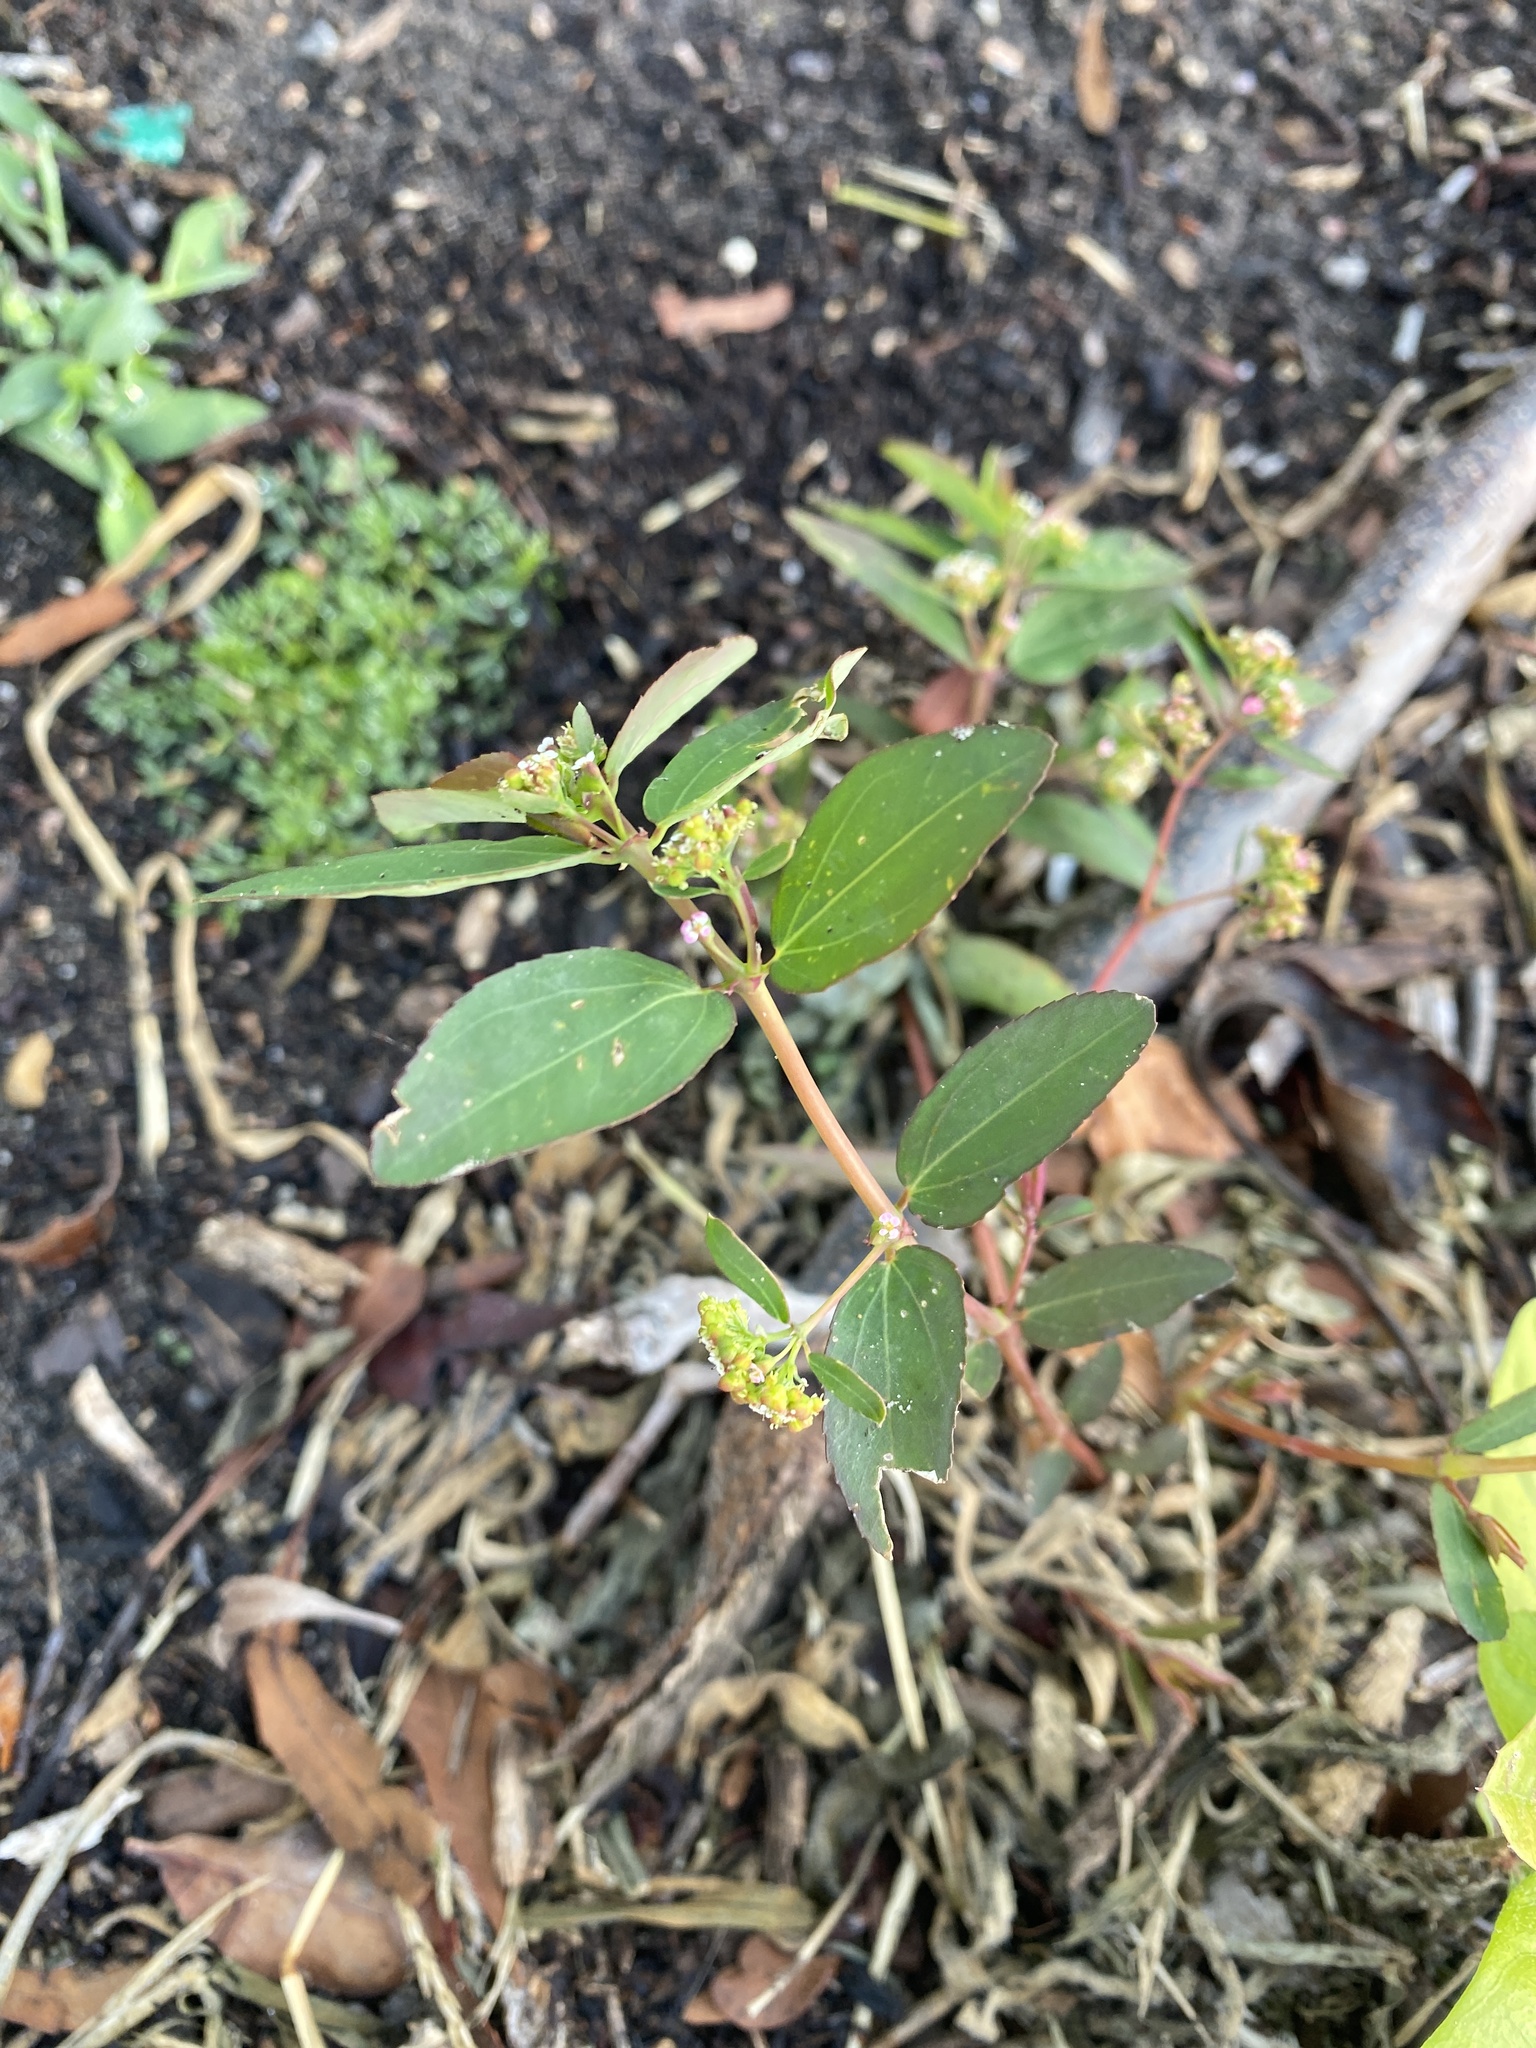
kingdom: Plantae
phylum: Tracheophyta
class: Magnoliopsida
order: Malpighiales
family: Euphorbiaceae
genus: Euphorbia
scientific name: Euphorbia hypericifolia
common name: Graceful sandmat
